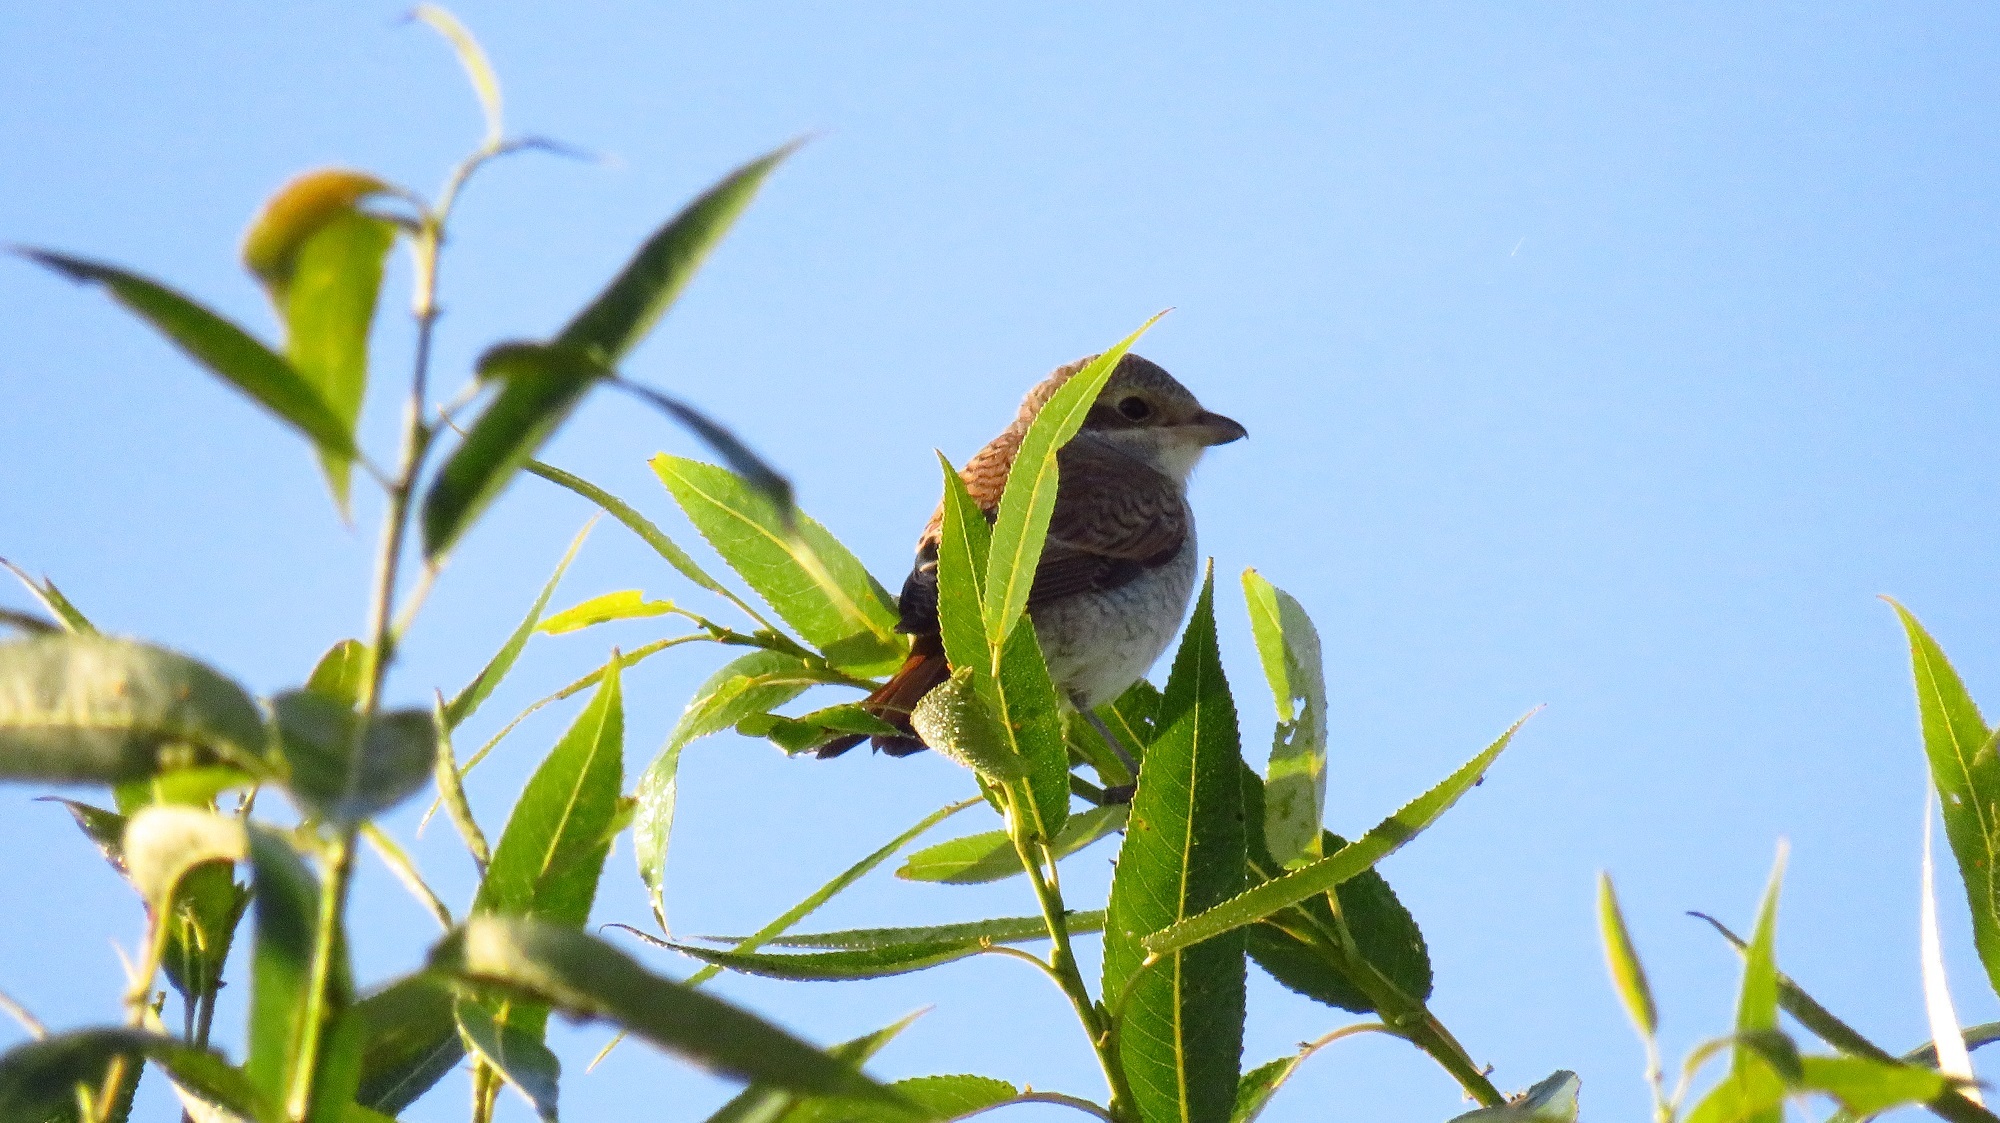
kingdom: Animalia
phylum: Chordata
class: Aves
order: Passeriformes
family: Laniidae
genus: Lanius
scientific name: Lanius collurio
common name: Red-backed shrike
